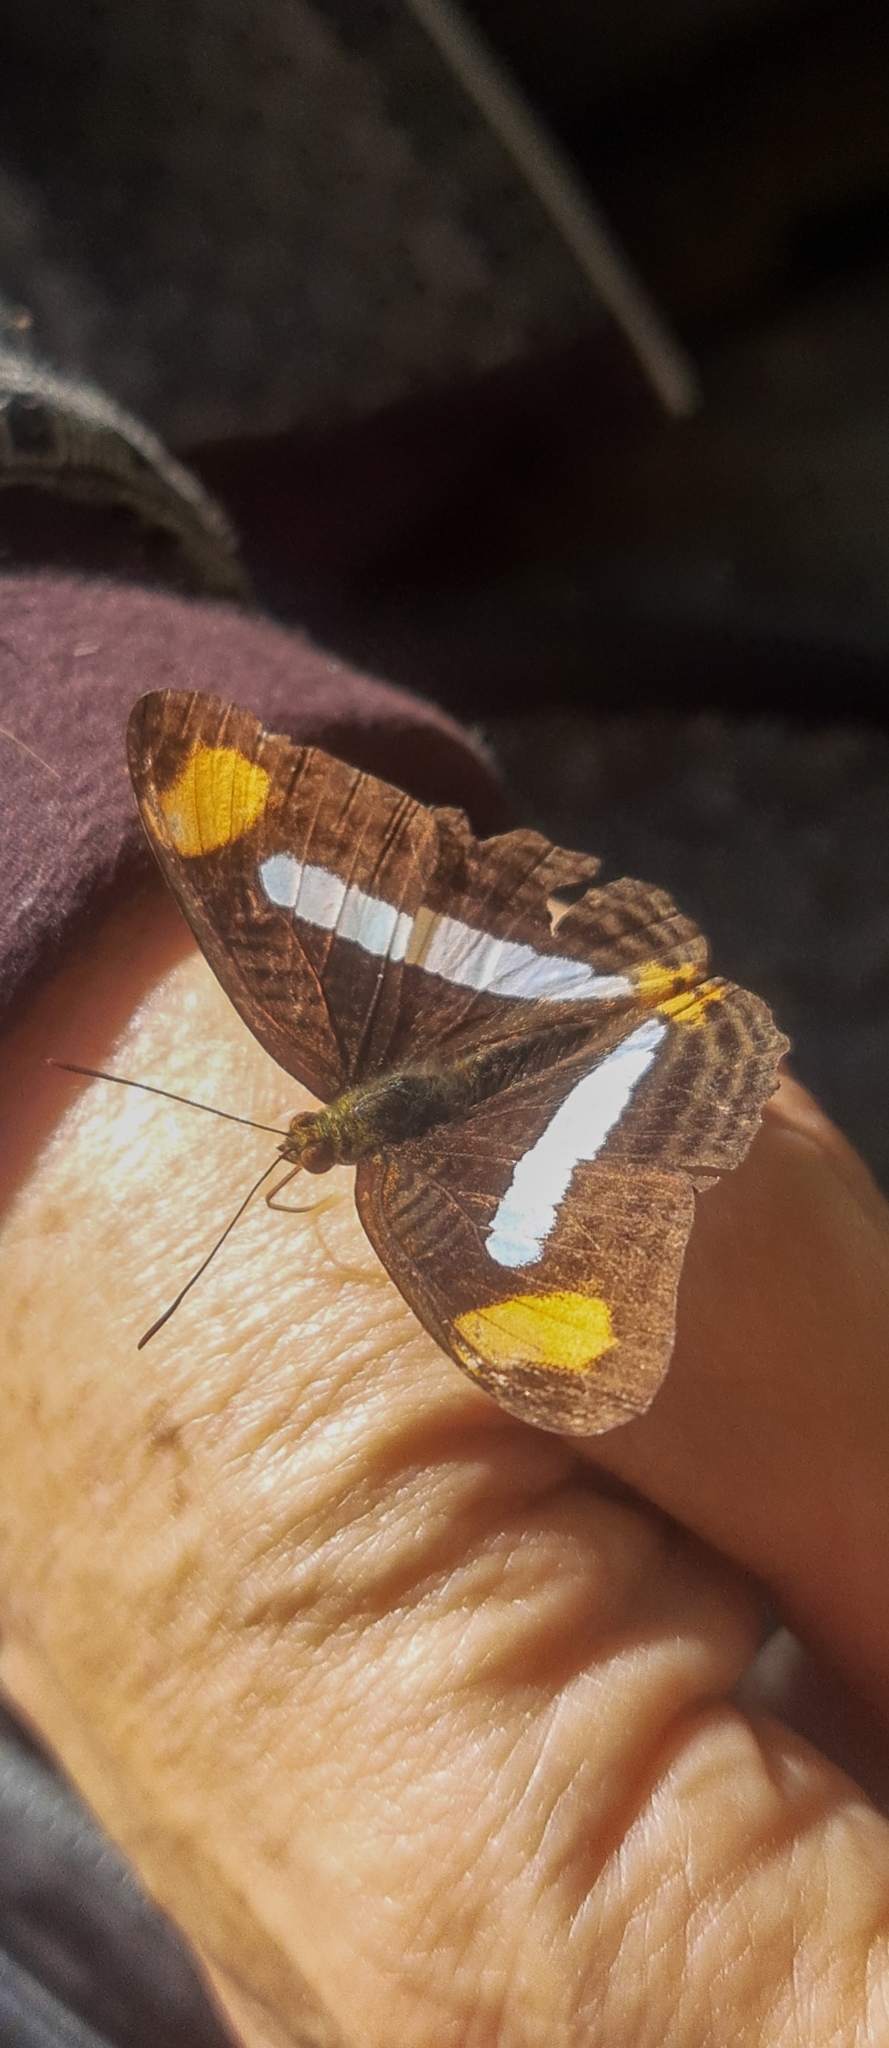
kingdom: Animalia
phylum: Arthropoda
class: Insecta
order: Lepidoptera
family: Nymphalidae
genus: Limenitis
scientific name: Limenitis Adelpha iphiclus
